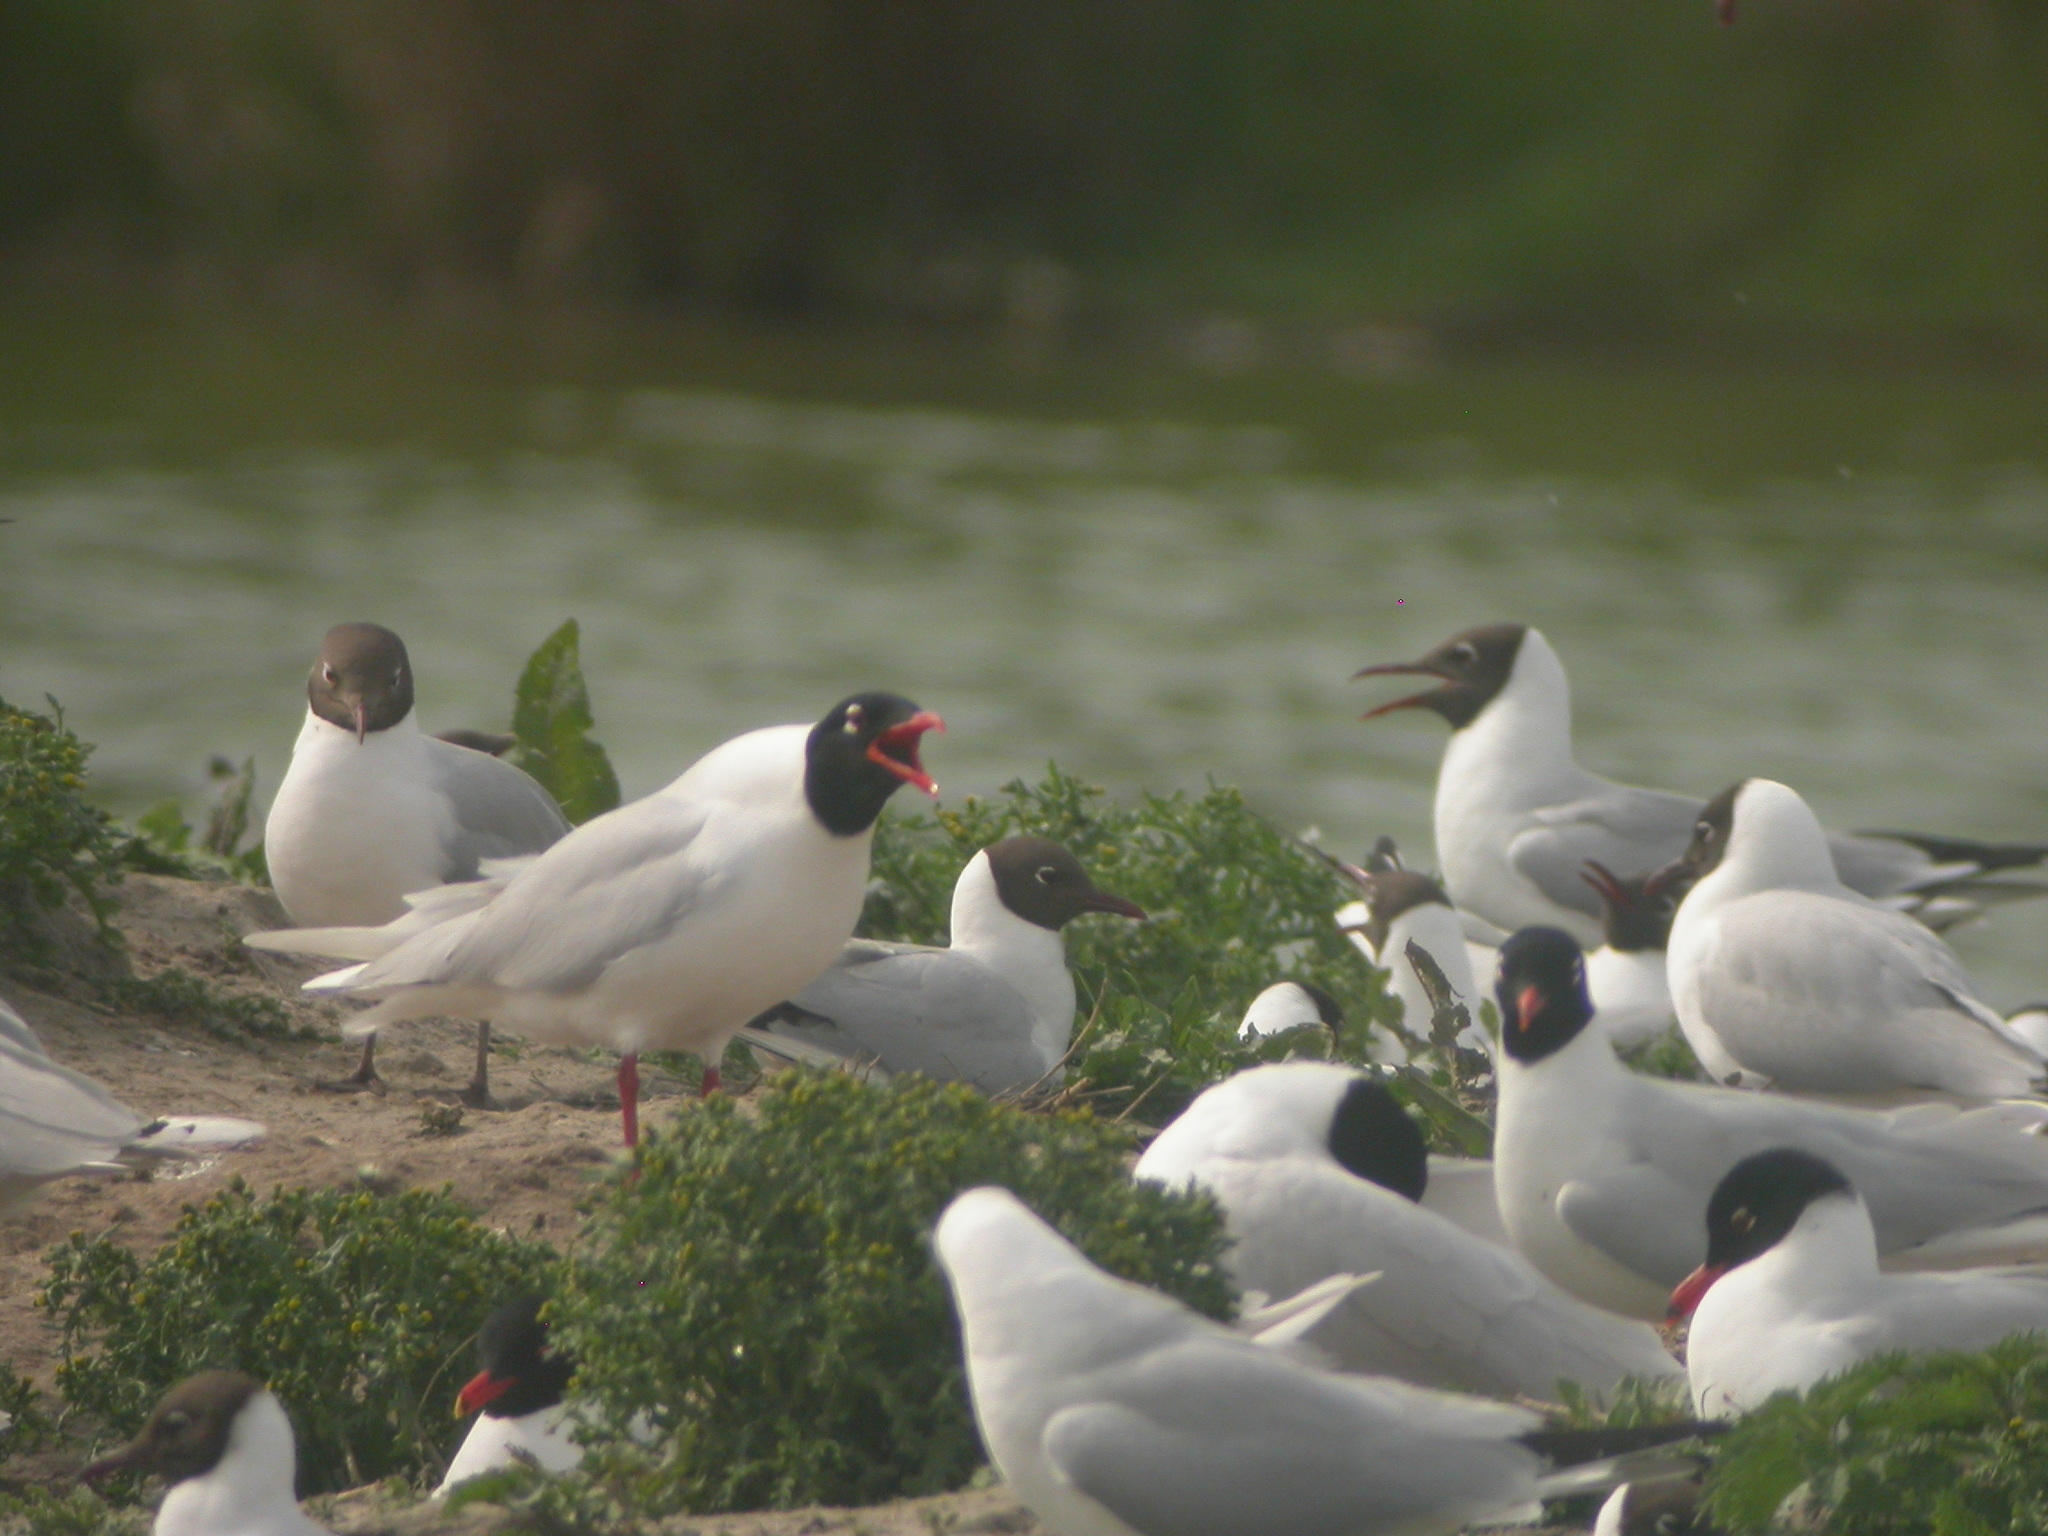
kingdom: Animalia
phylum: Chordata
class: Aves
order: Charadriiformes
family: Laridae
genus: Ichthyaetus
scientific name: Ichthyaetus melanocephalus
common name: Mediterranean gull
